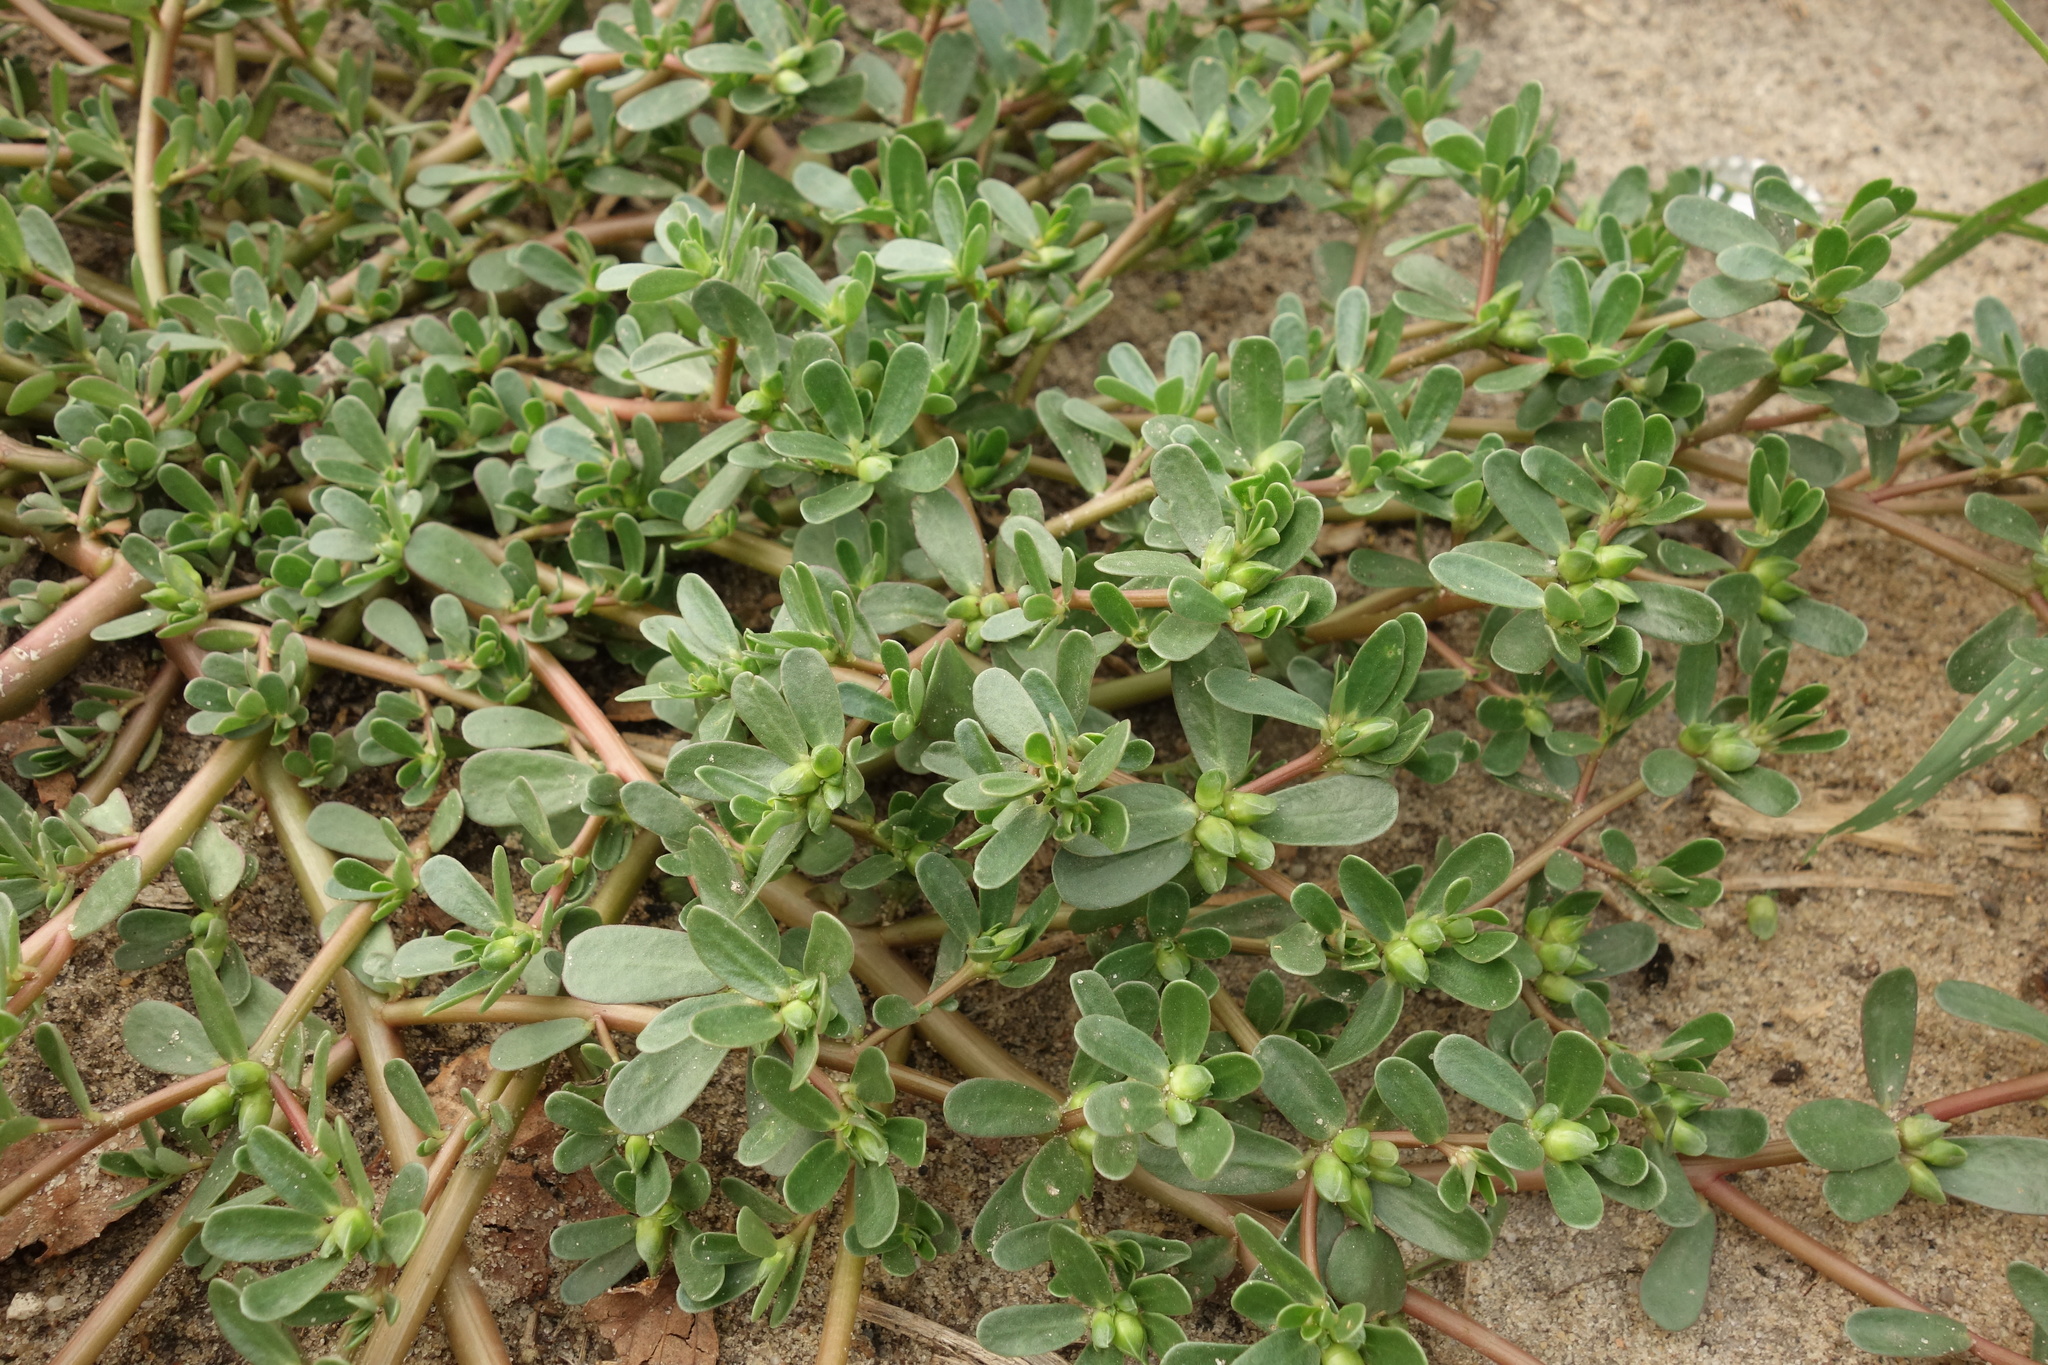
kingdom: Plantae
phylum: Tracheophyta
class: Magnoliopsida
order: Caryophyllales
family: Portulacaceae
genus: Portulaca
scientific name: Portulaca oleracea
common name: Common purslane
